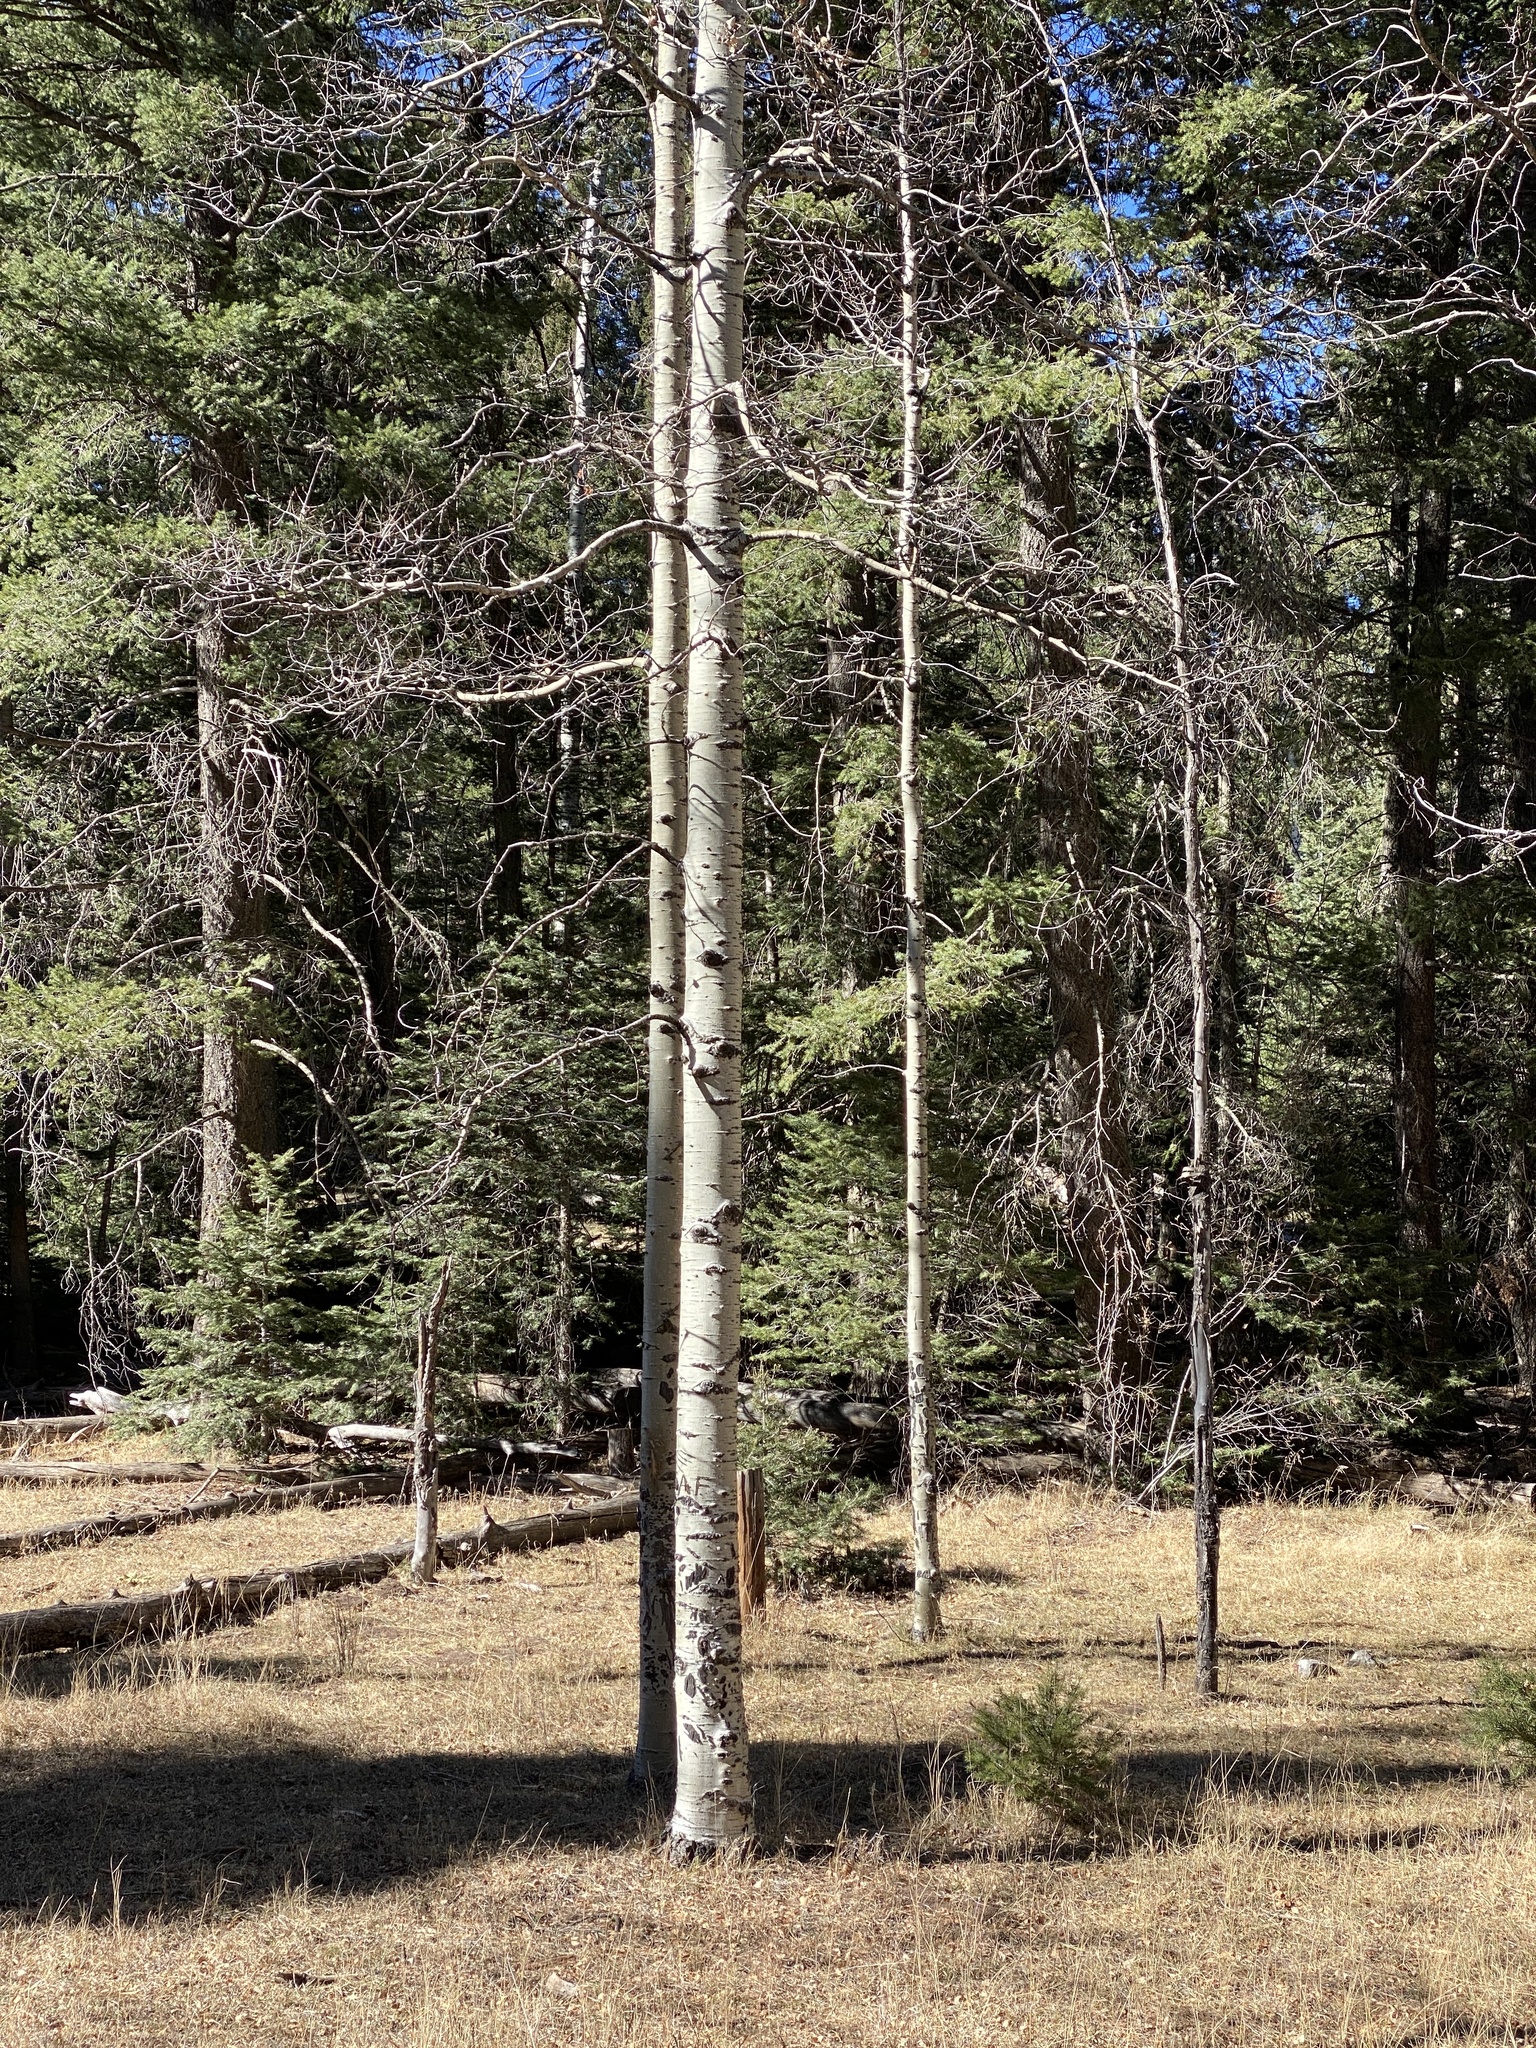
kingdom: Plantae
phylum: Tracheophyta
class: Magnoliopsida
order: Malpighiales
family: Salicaceae
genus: Populus
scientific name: Populus tremuloides
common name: Quaking aspen
